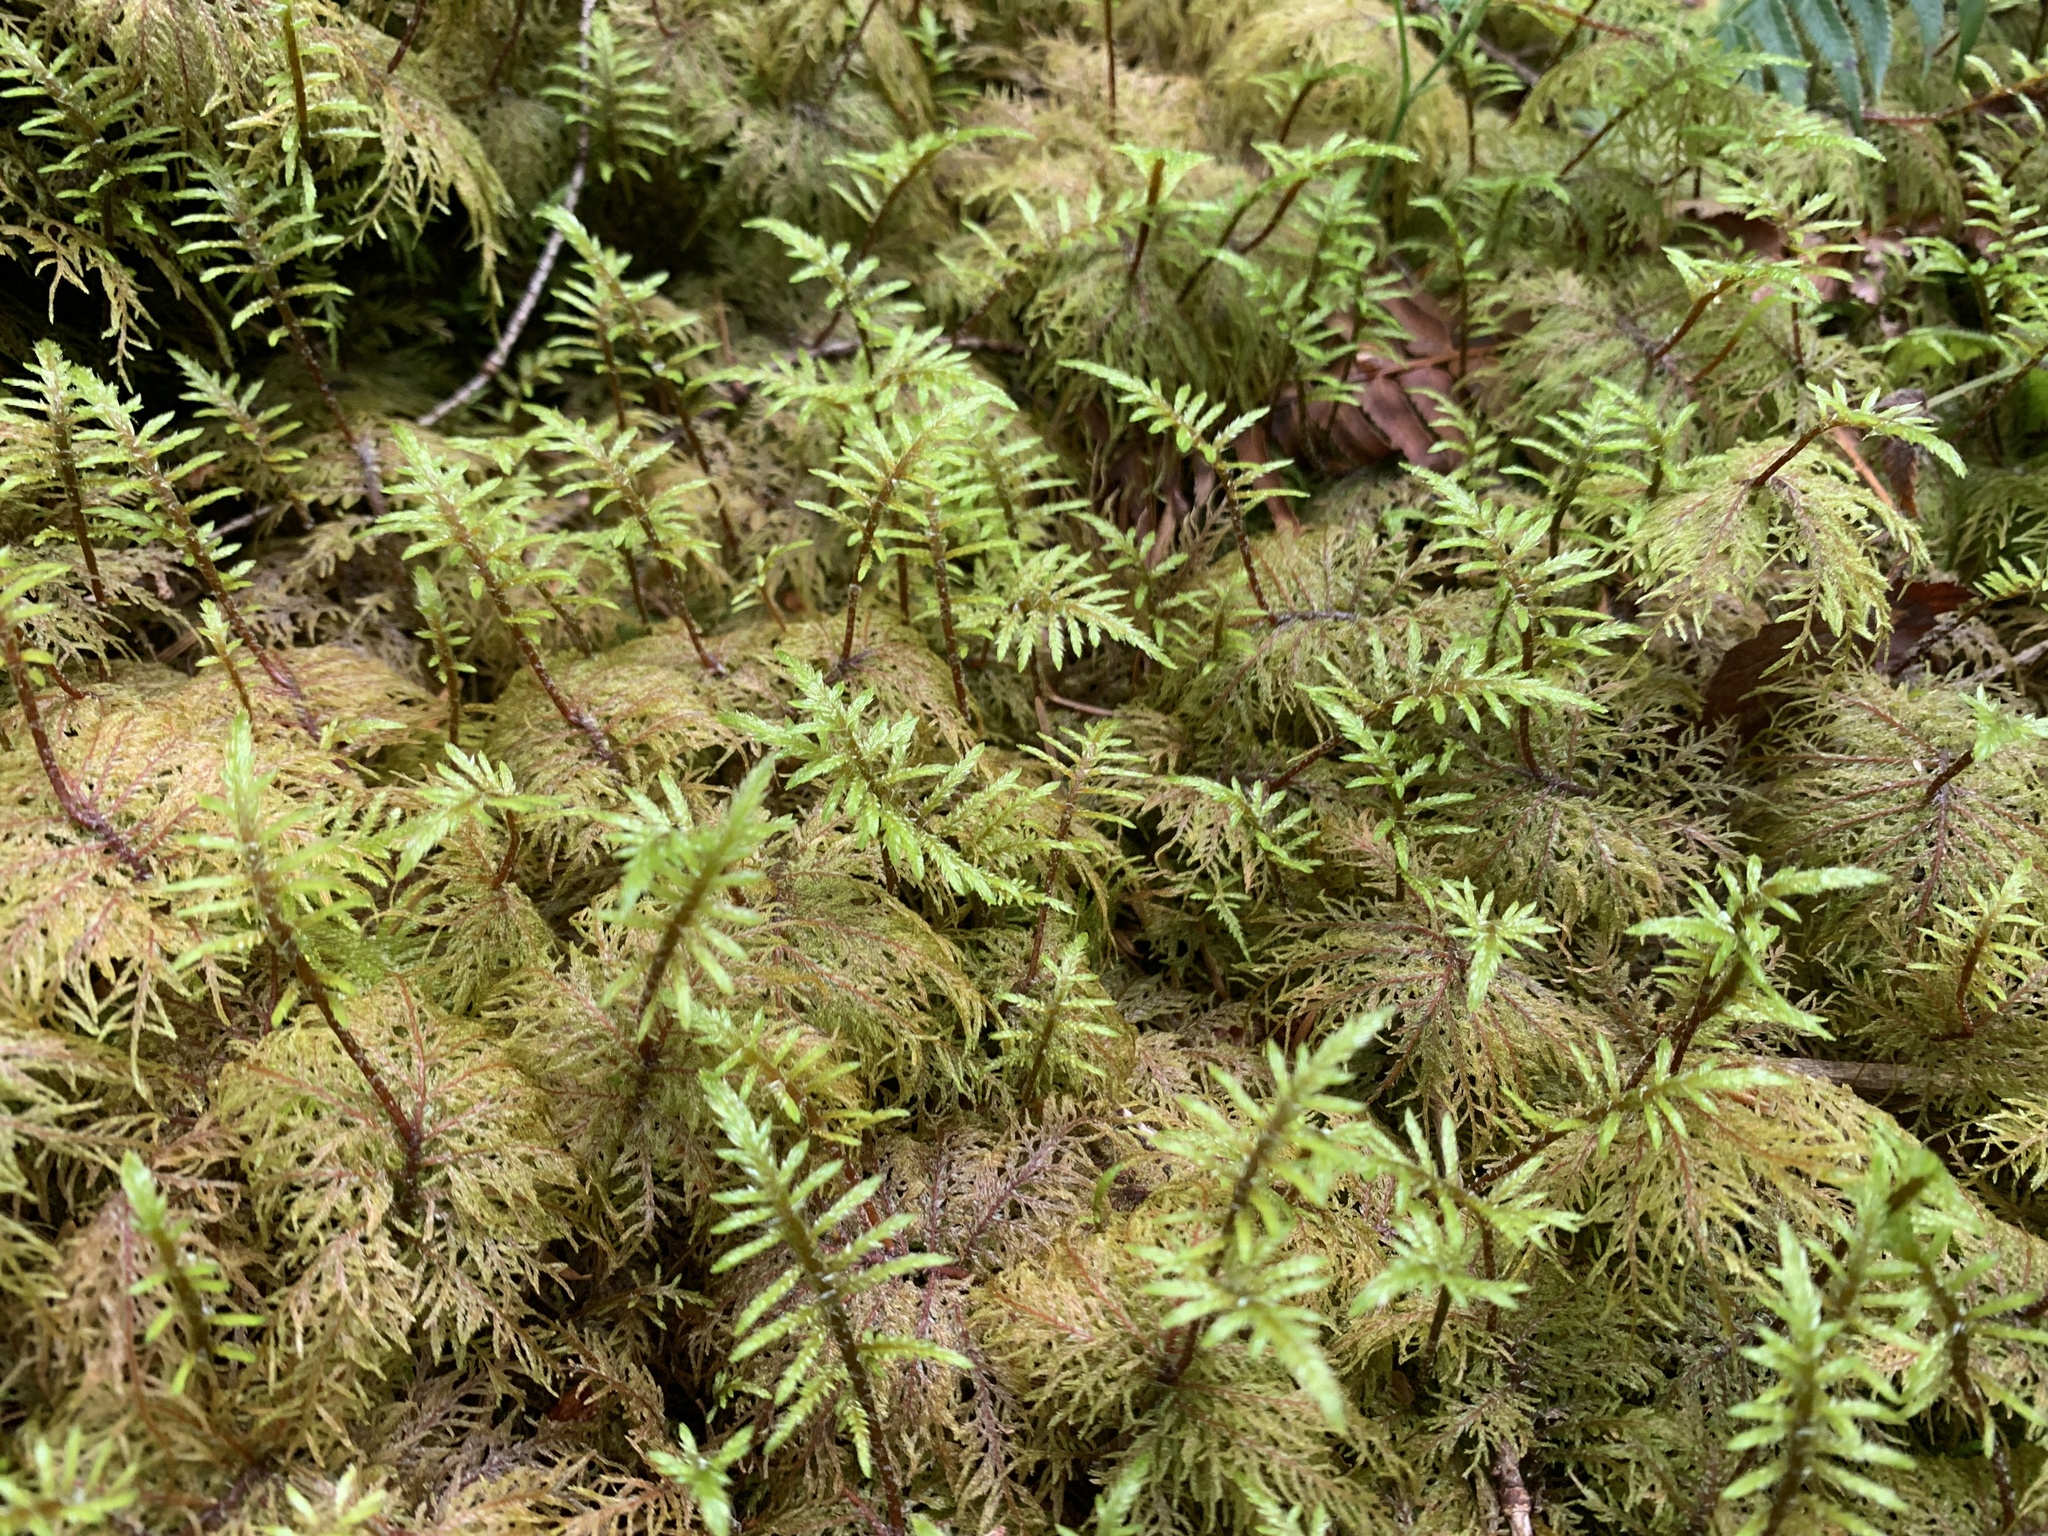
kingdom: Plantae
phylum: Bryophyta
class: Bryopsida
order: Hypnales
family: Hylocomiaceae
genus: Hylocomium
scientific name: Hylocomium splendens
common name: Stairstep moss
